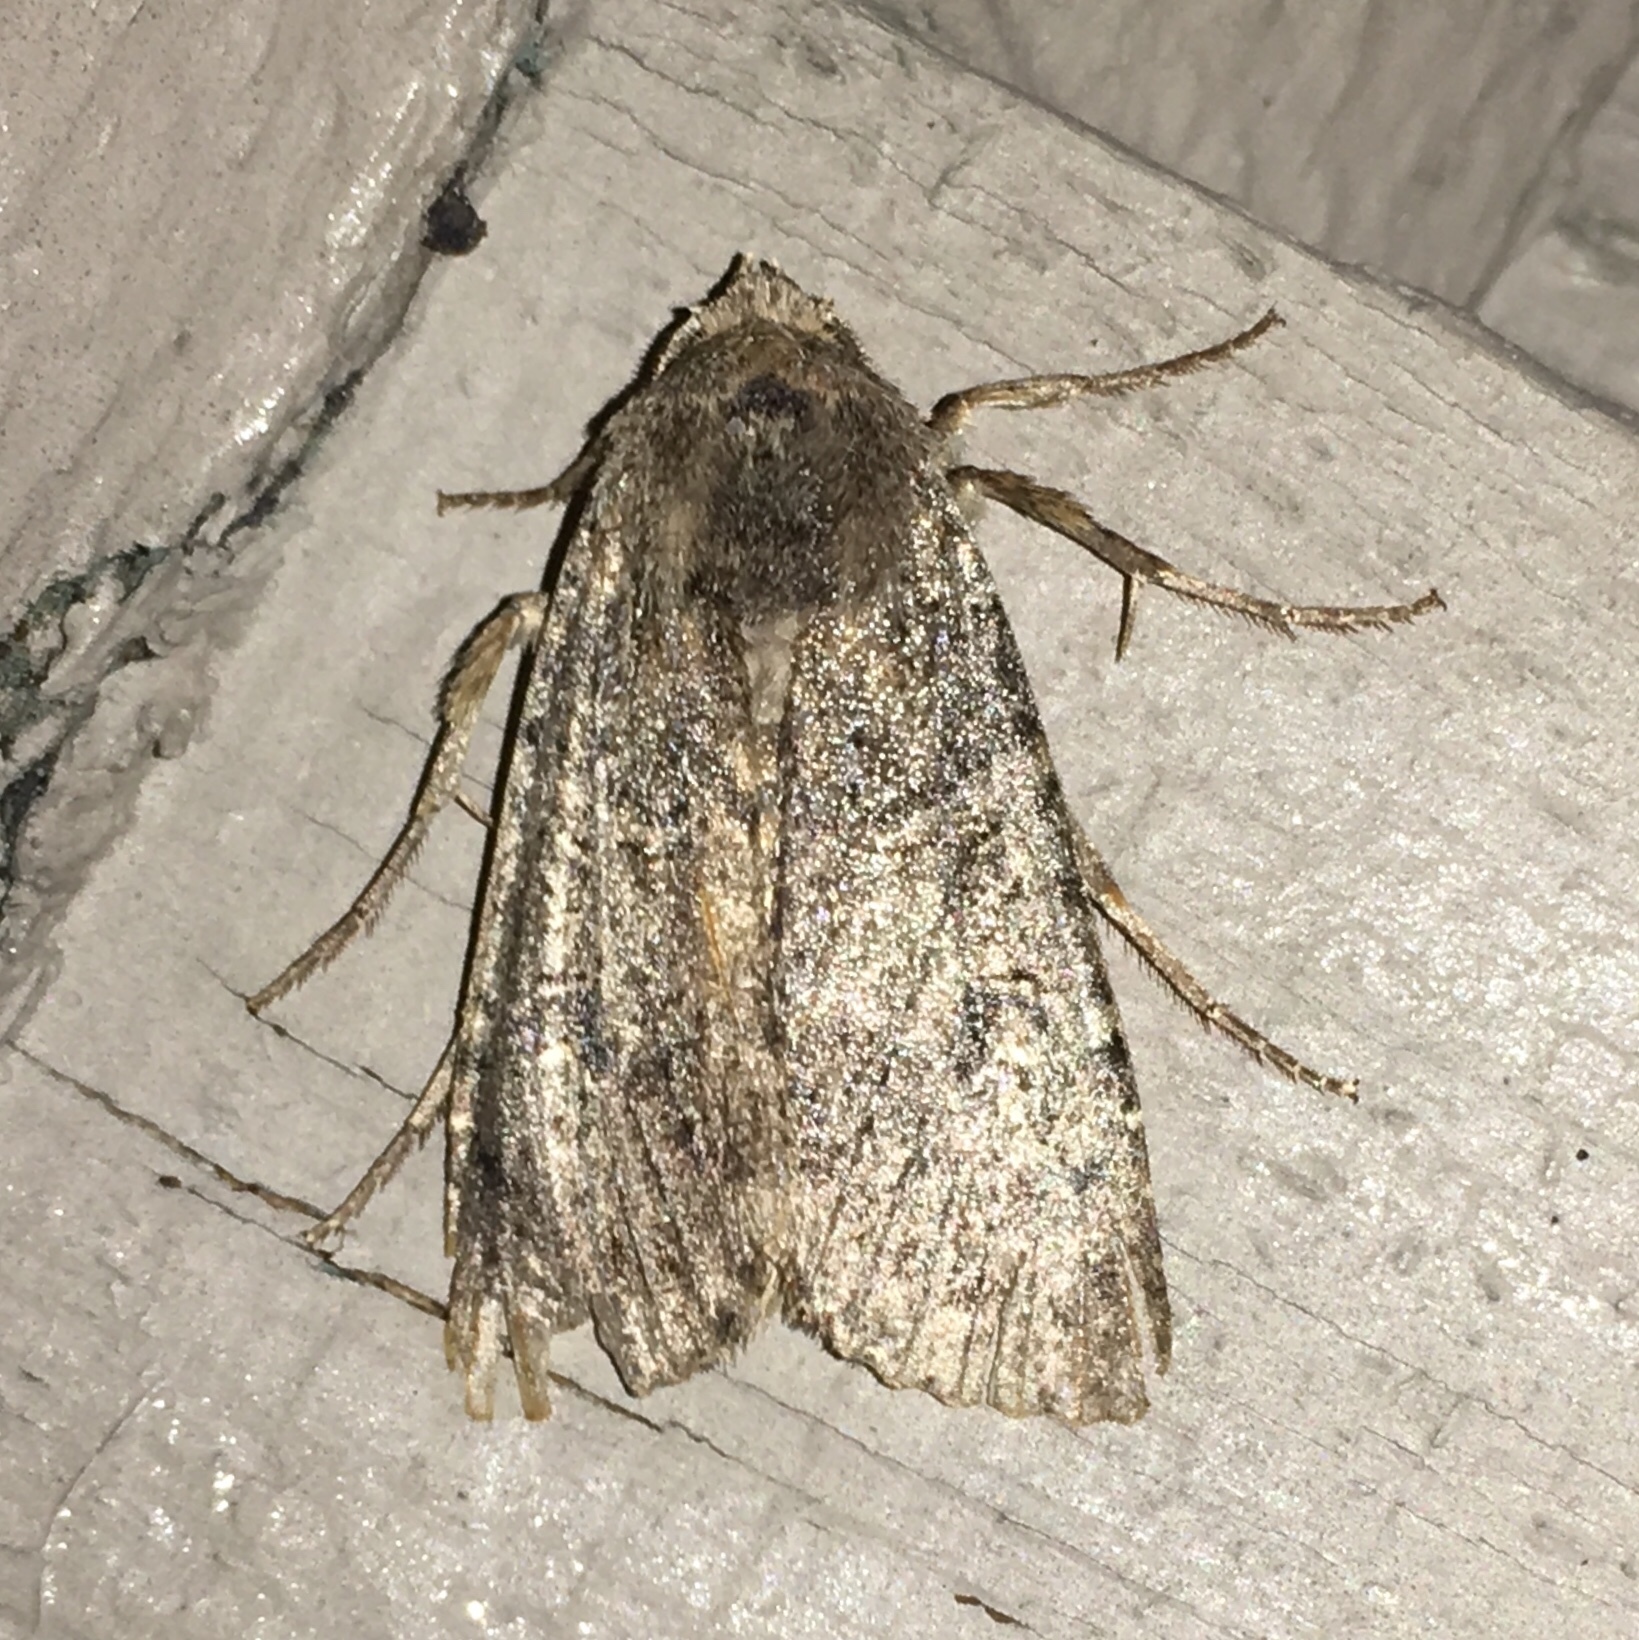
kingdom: Animalia
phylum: Arthropoda
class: Insecta
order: Lepidoptera
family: Noctuidae
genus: Peridroma
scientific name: Peridroma saucia
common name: Pearly underwing
